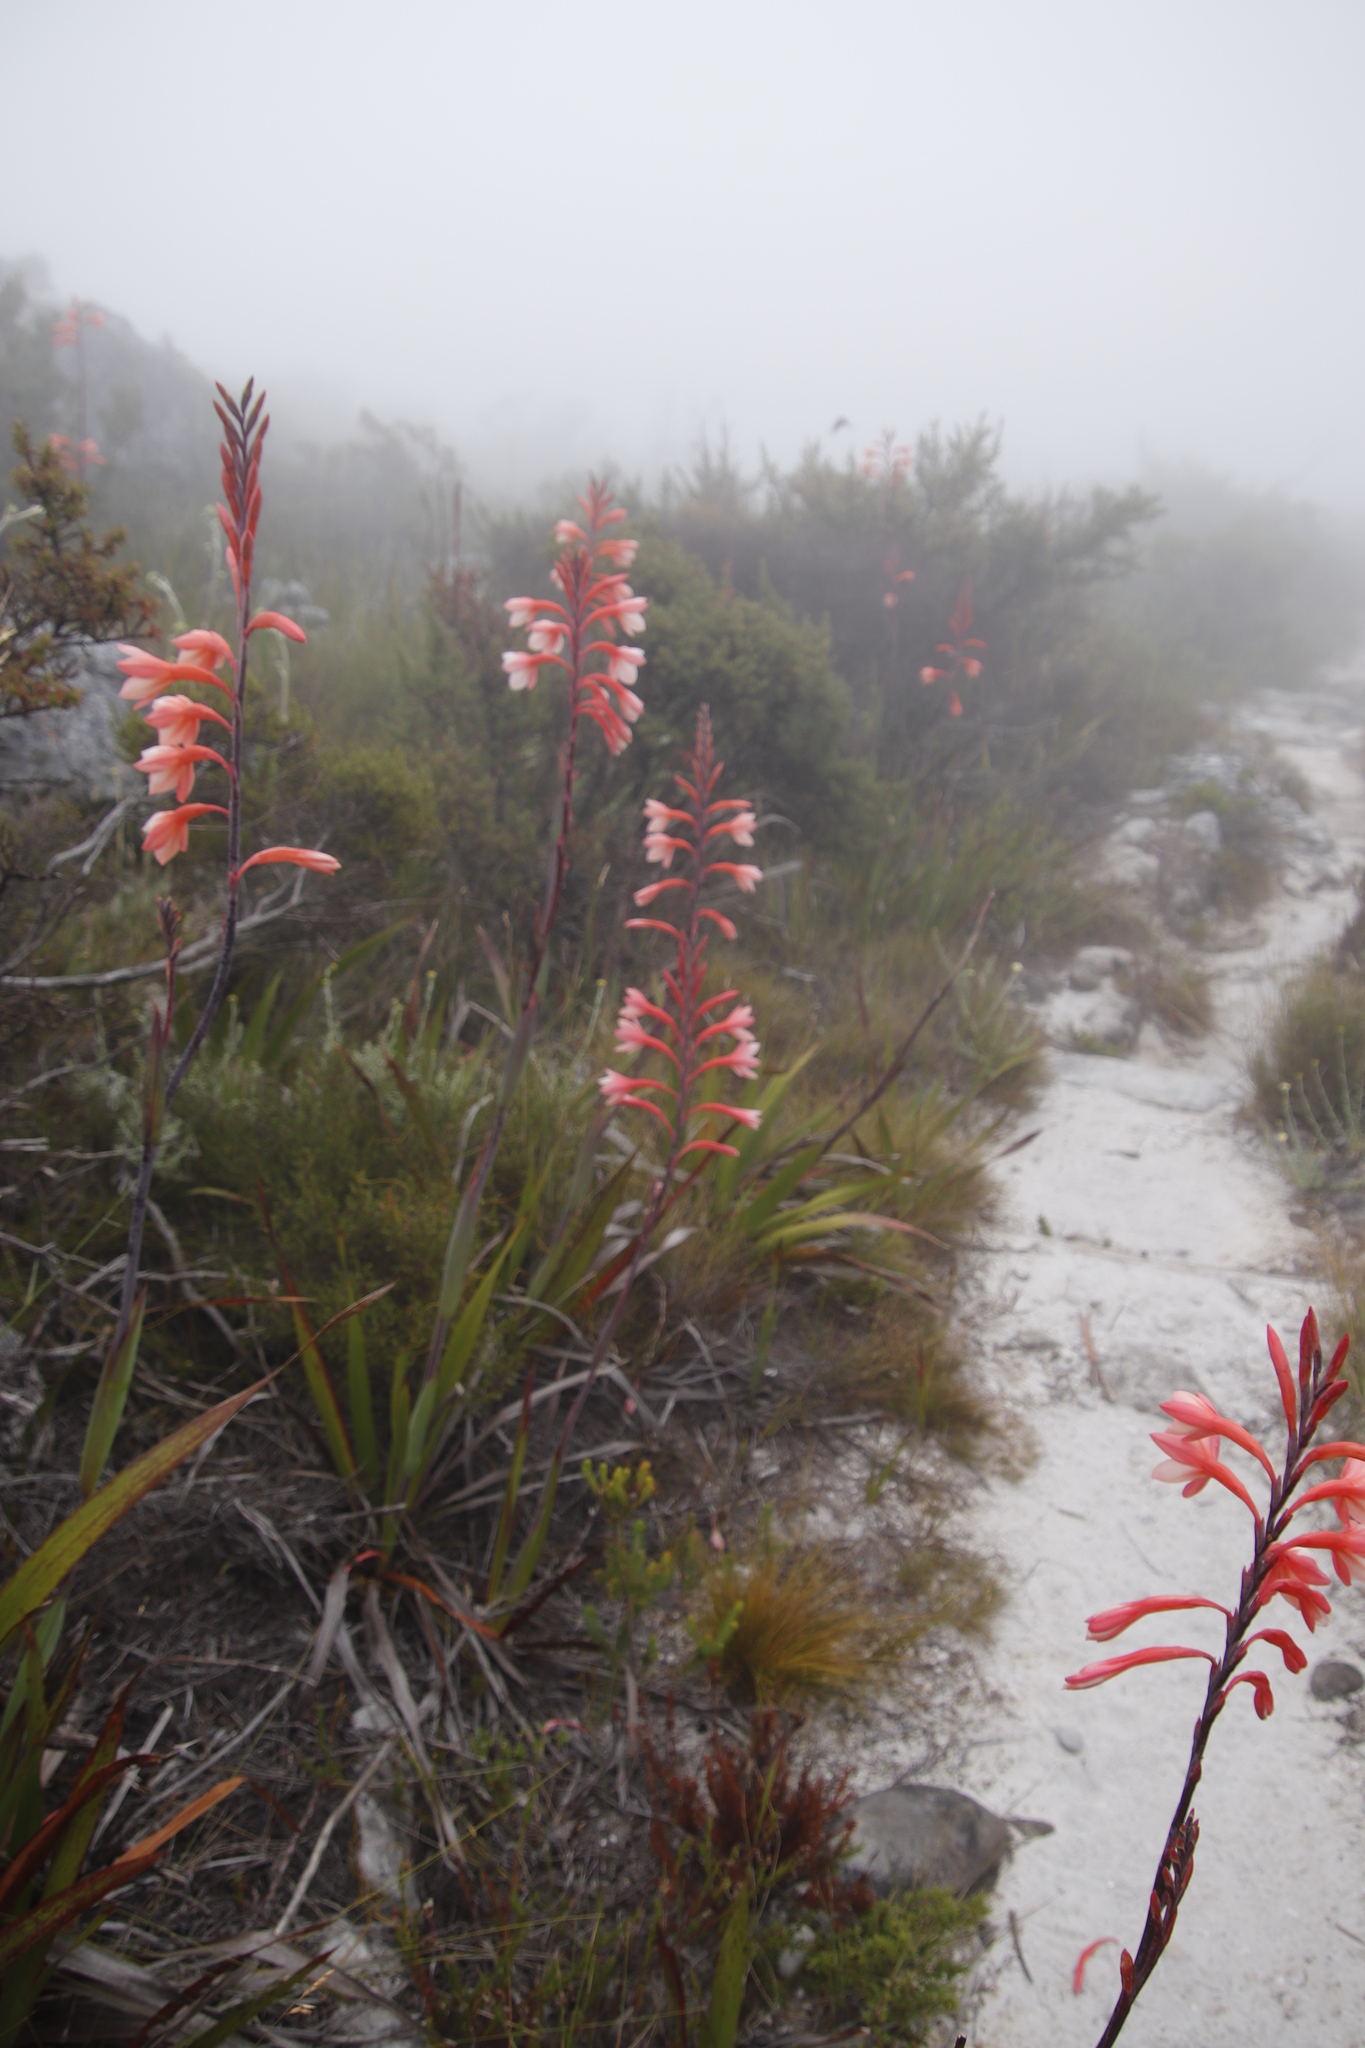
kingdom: Plantae
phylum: Tracheophyta
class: Liliopsida
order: Asparagales
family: Iridaceae
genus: Watsonia
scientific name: Watsonia tabularis
